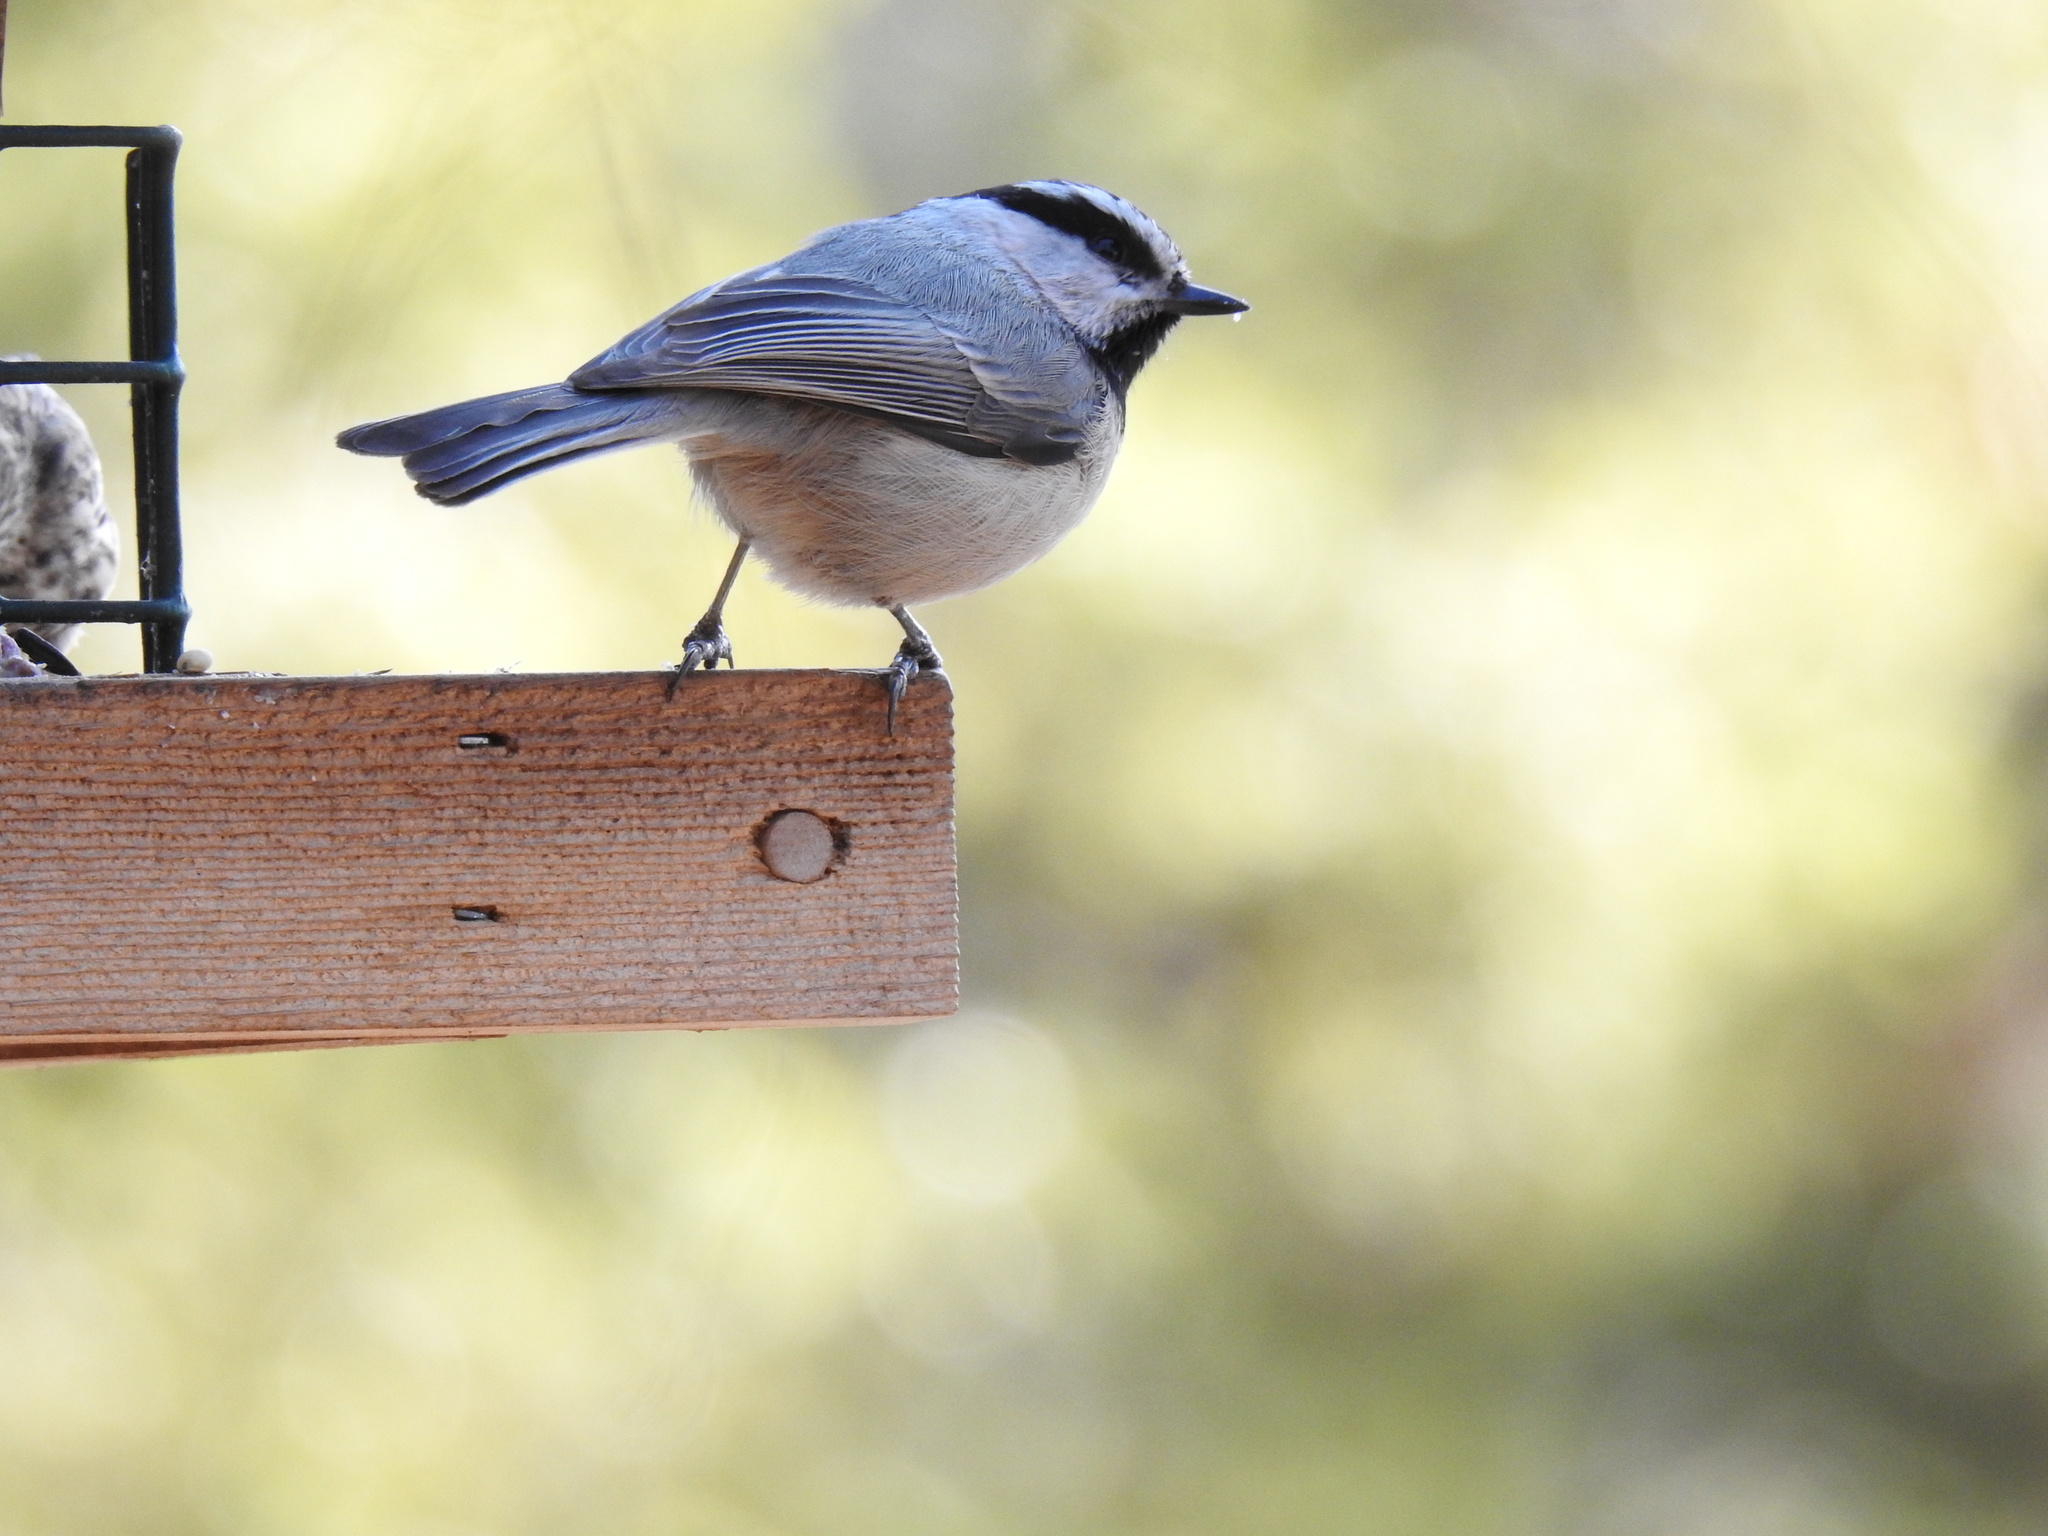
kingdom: Animalia
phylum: Chordata
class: Aves
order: Passeriformes
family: Paridae
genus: Poecile
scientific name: Poecile gambeli
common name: Mountain chickadee
